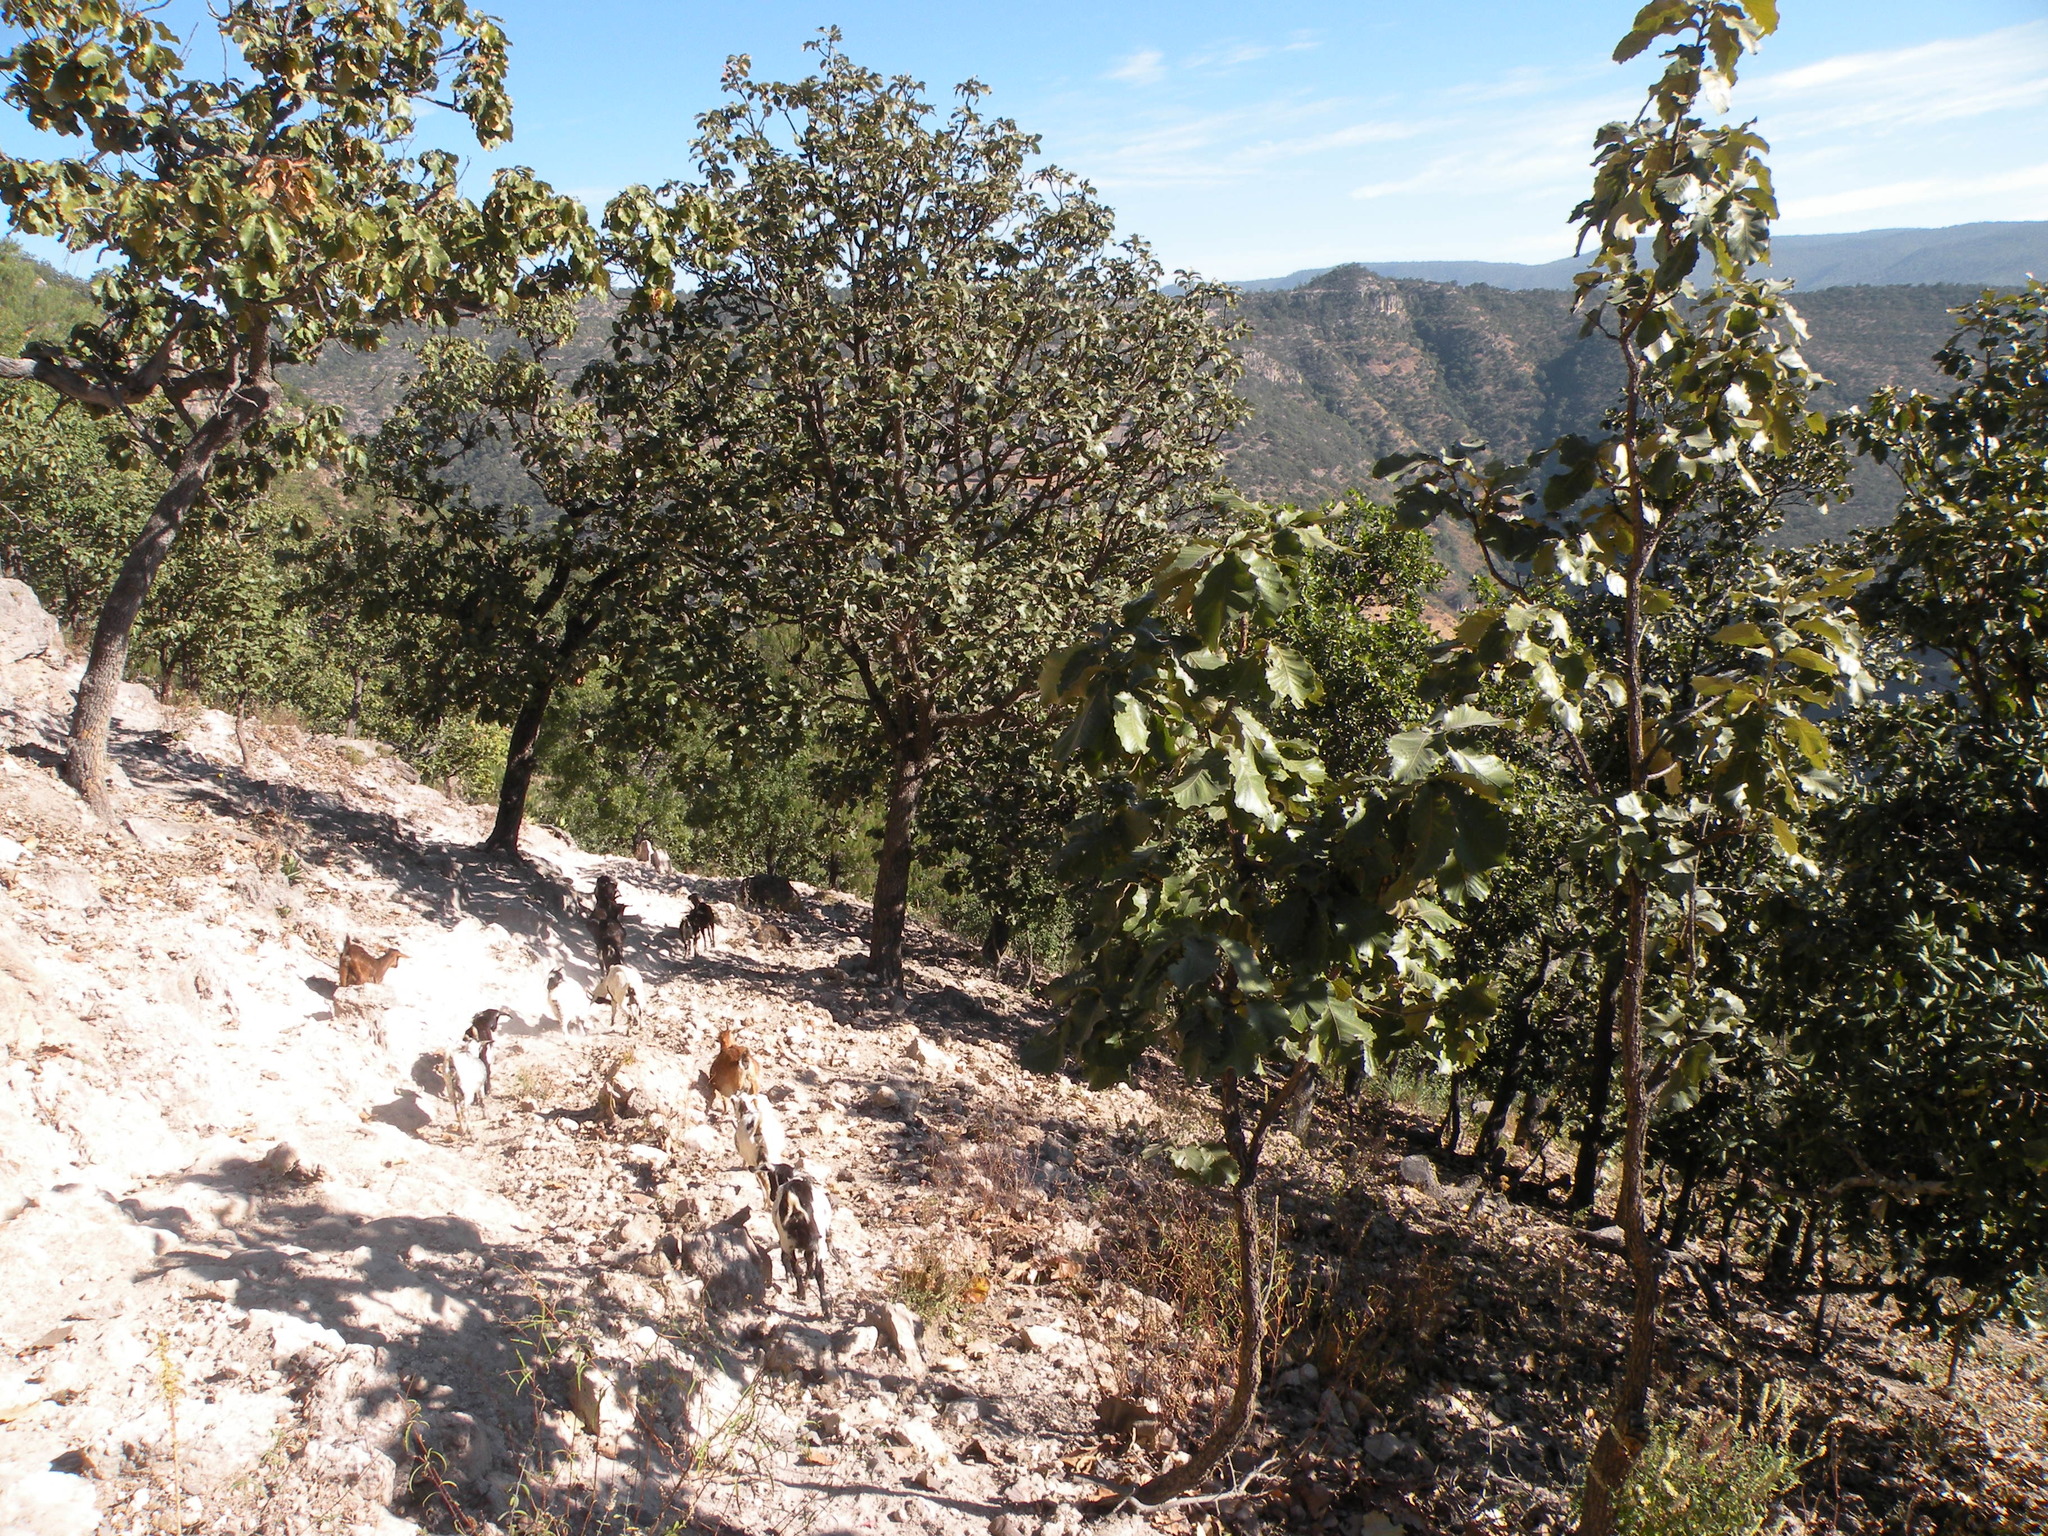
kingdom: Plantae
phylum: Tracheophyta
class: Magnoliopsida
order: Fagales
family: Fagaceae
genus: Quercus
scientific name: Quercus resinosa
